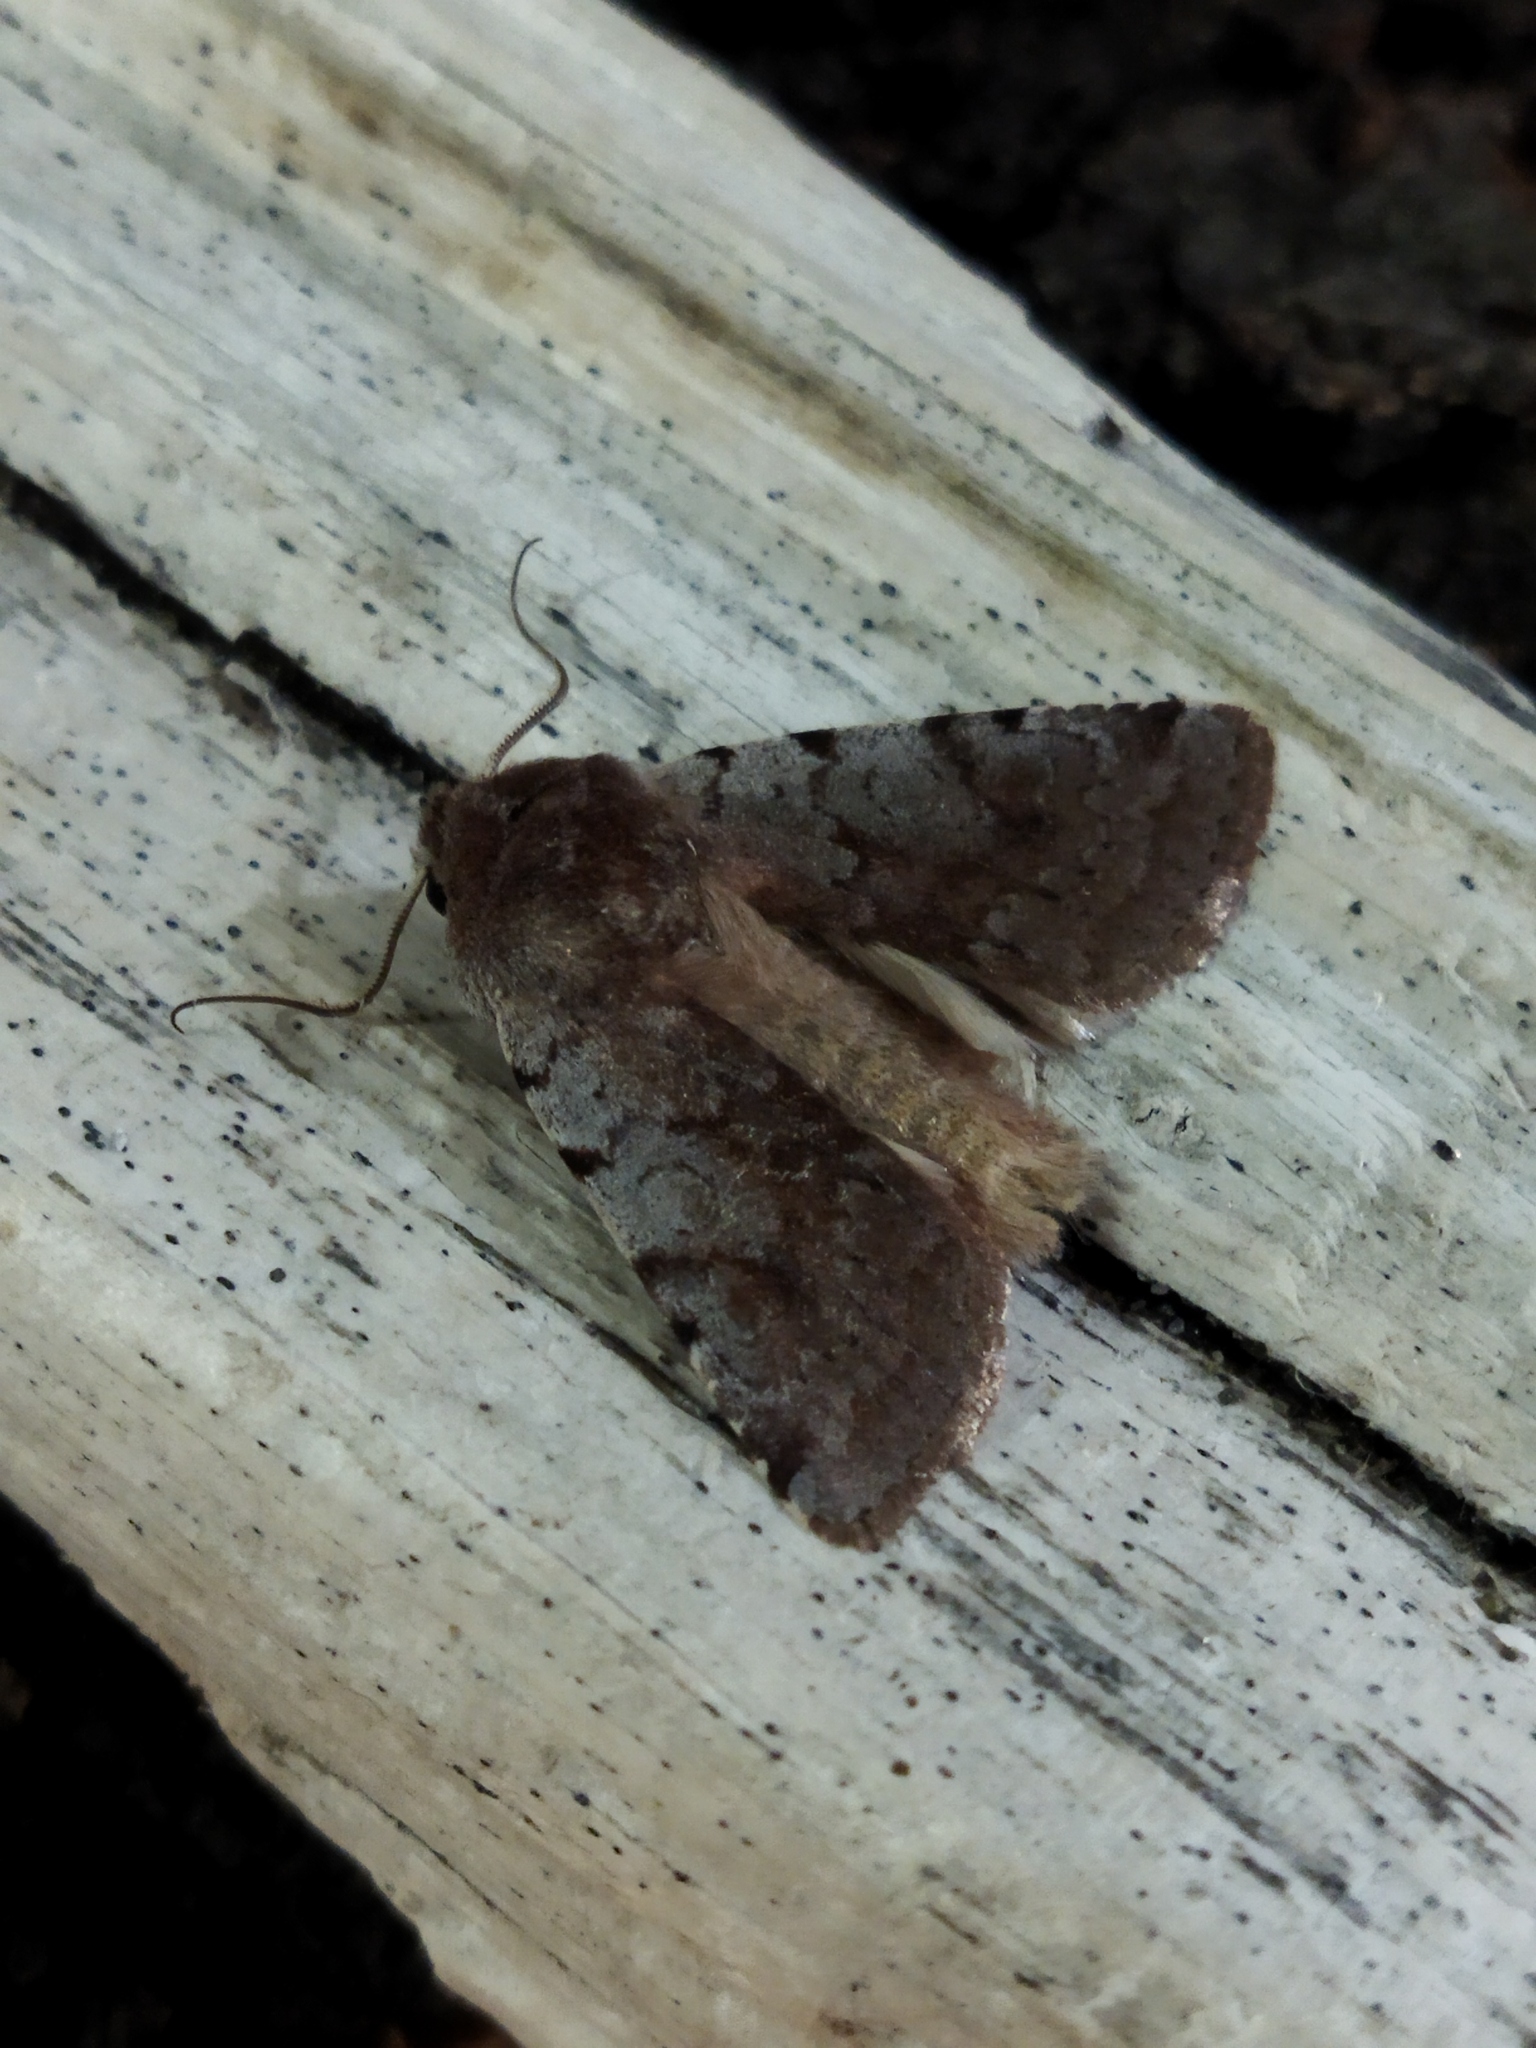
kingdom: Animalia
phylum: Arthropoda
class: Insecta
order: Lepidoptera
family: Noctuidae
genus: Cerastis
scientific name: Cerastis rubricosa
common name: Red chestnut
